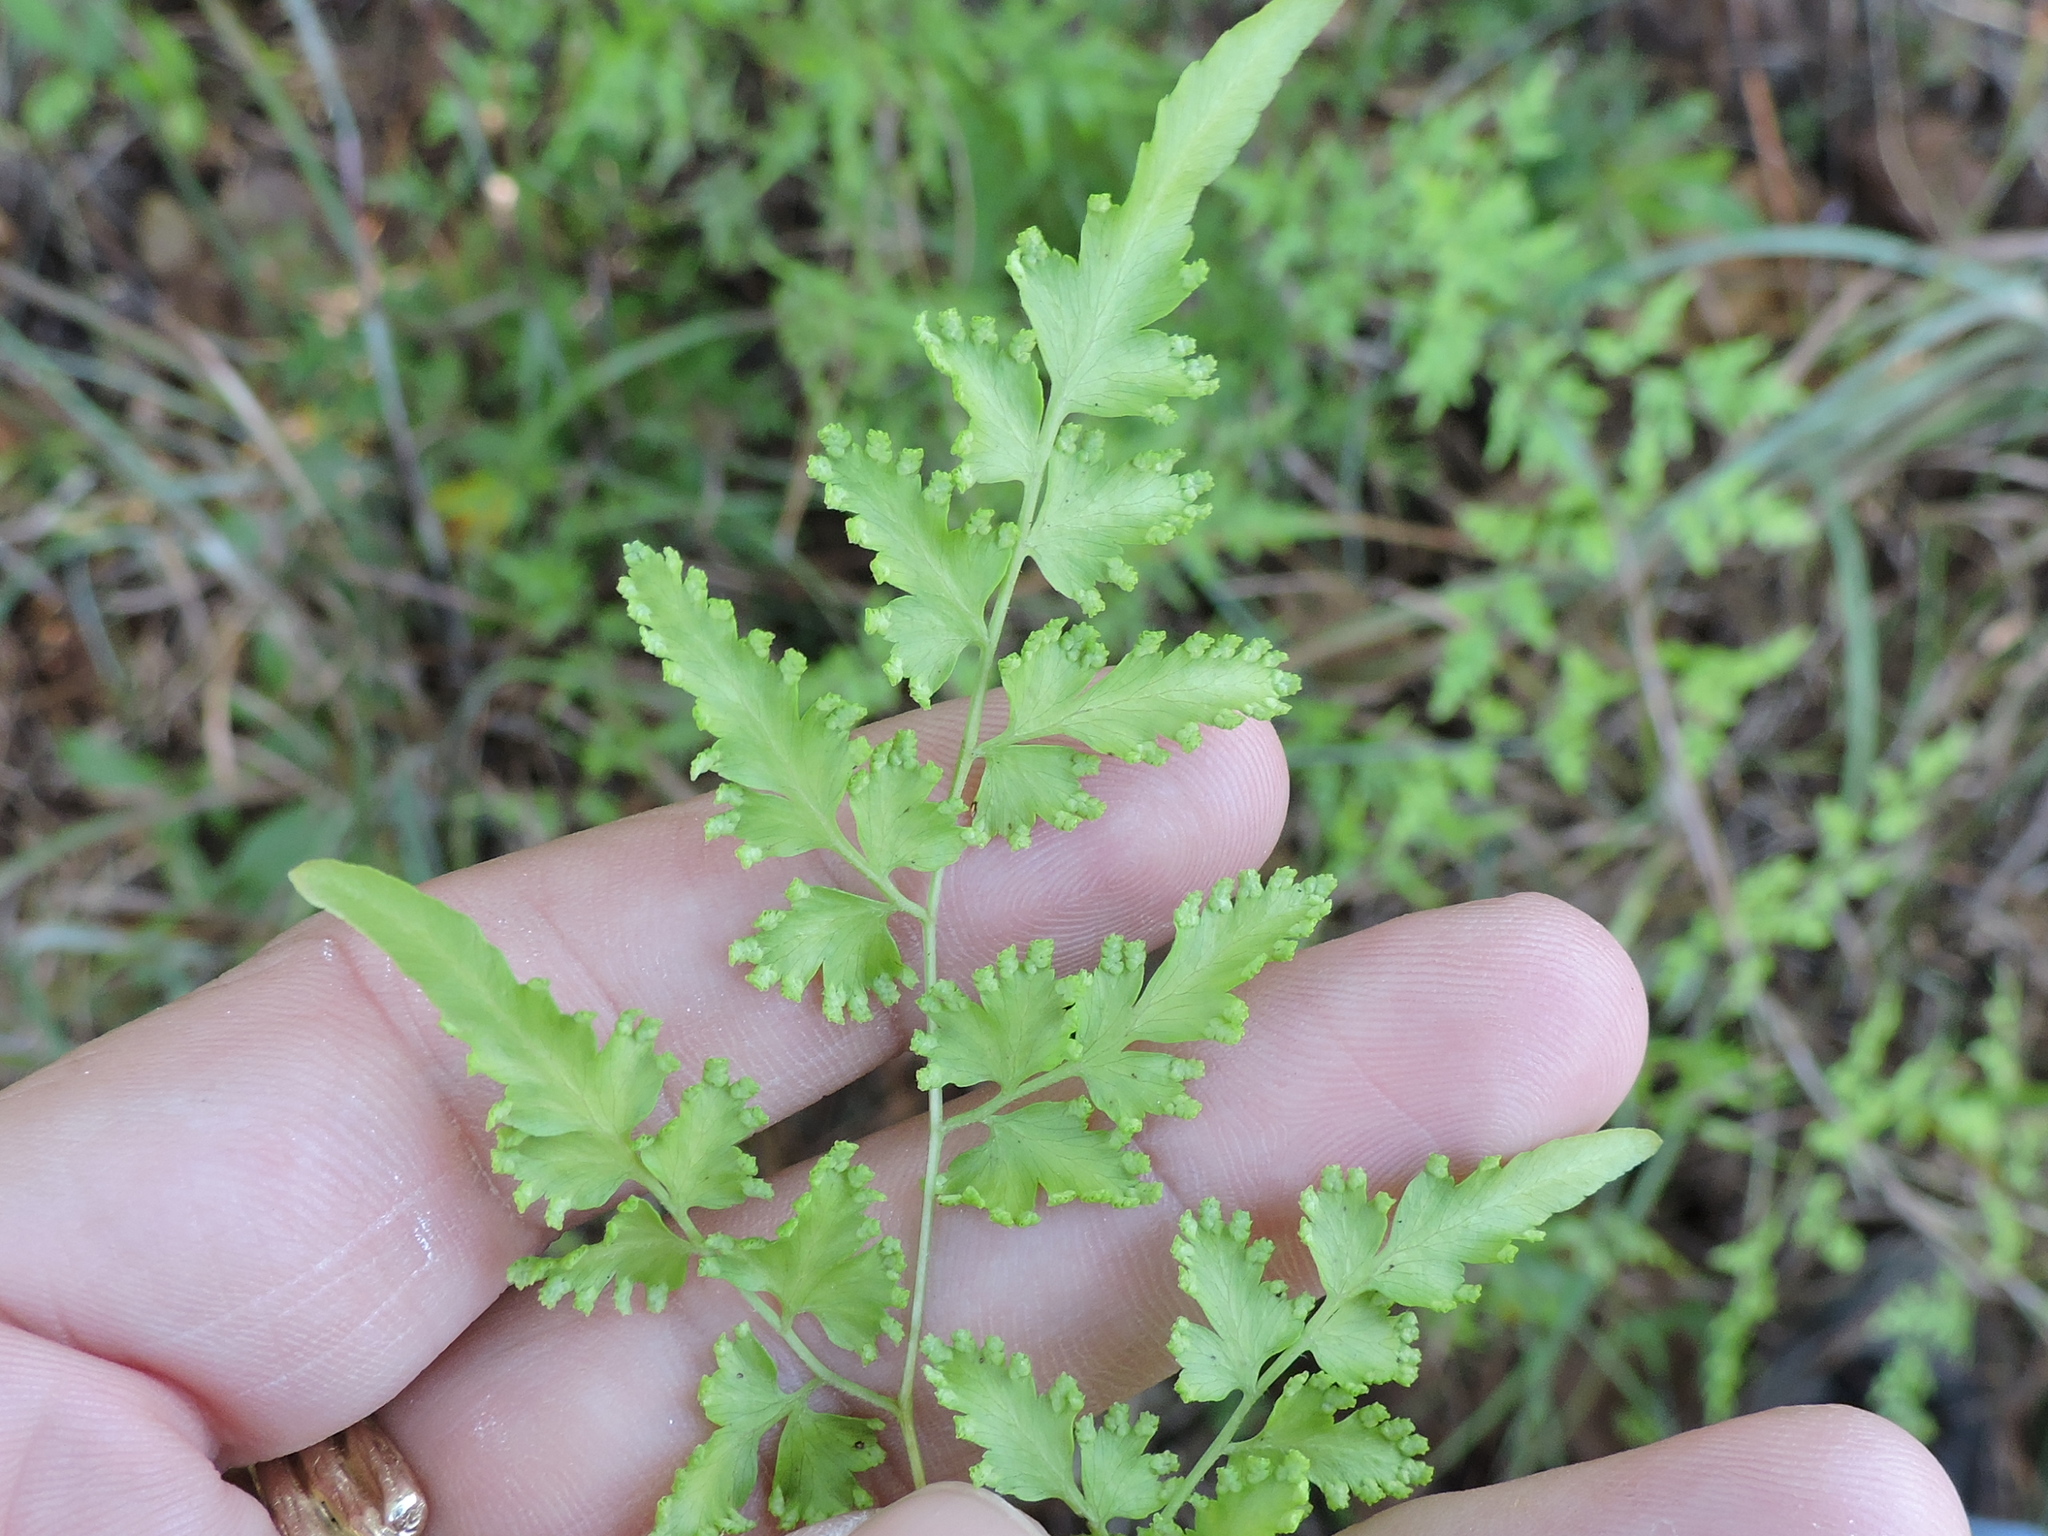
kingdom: Plantae
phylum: Tracheophyta
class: Polypodiopsida
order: Schizaeales
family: Lygodiaceae
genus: Lygodium
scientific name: Lygodium japonicum
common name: Japanese climbing fern
